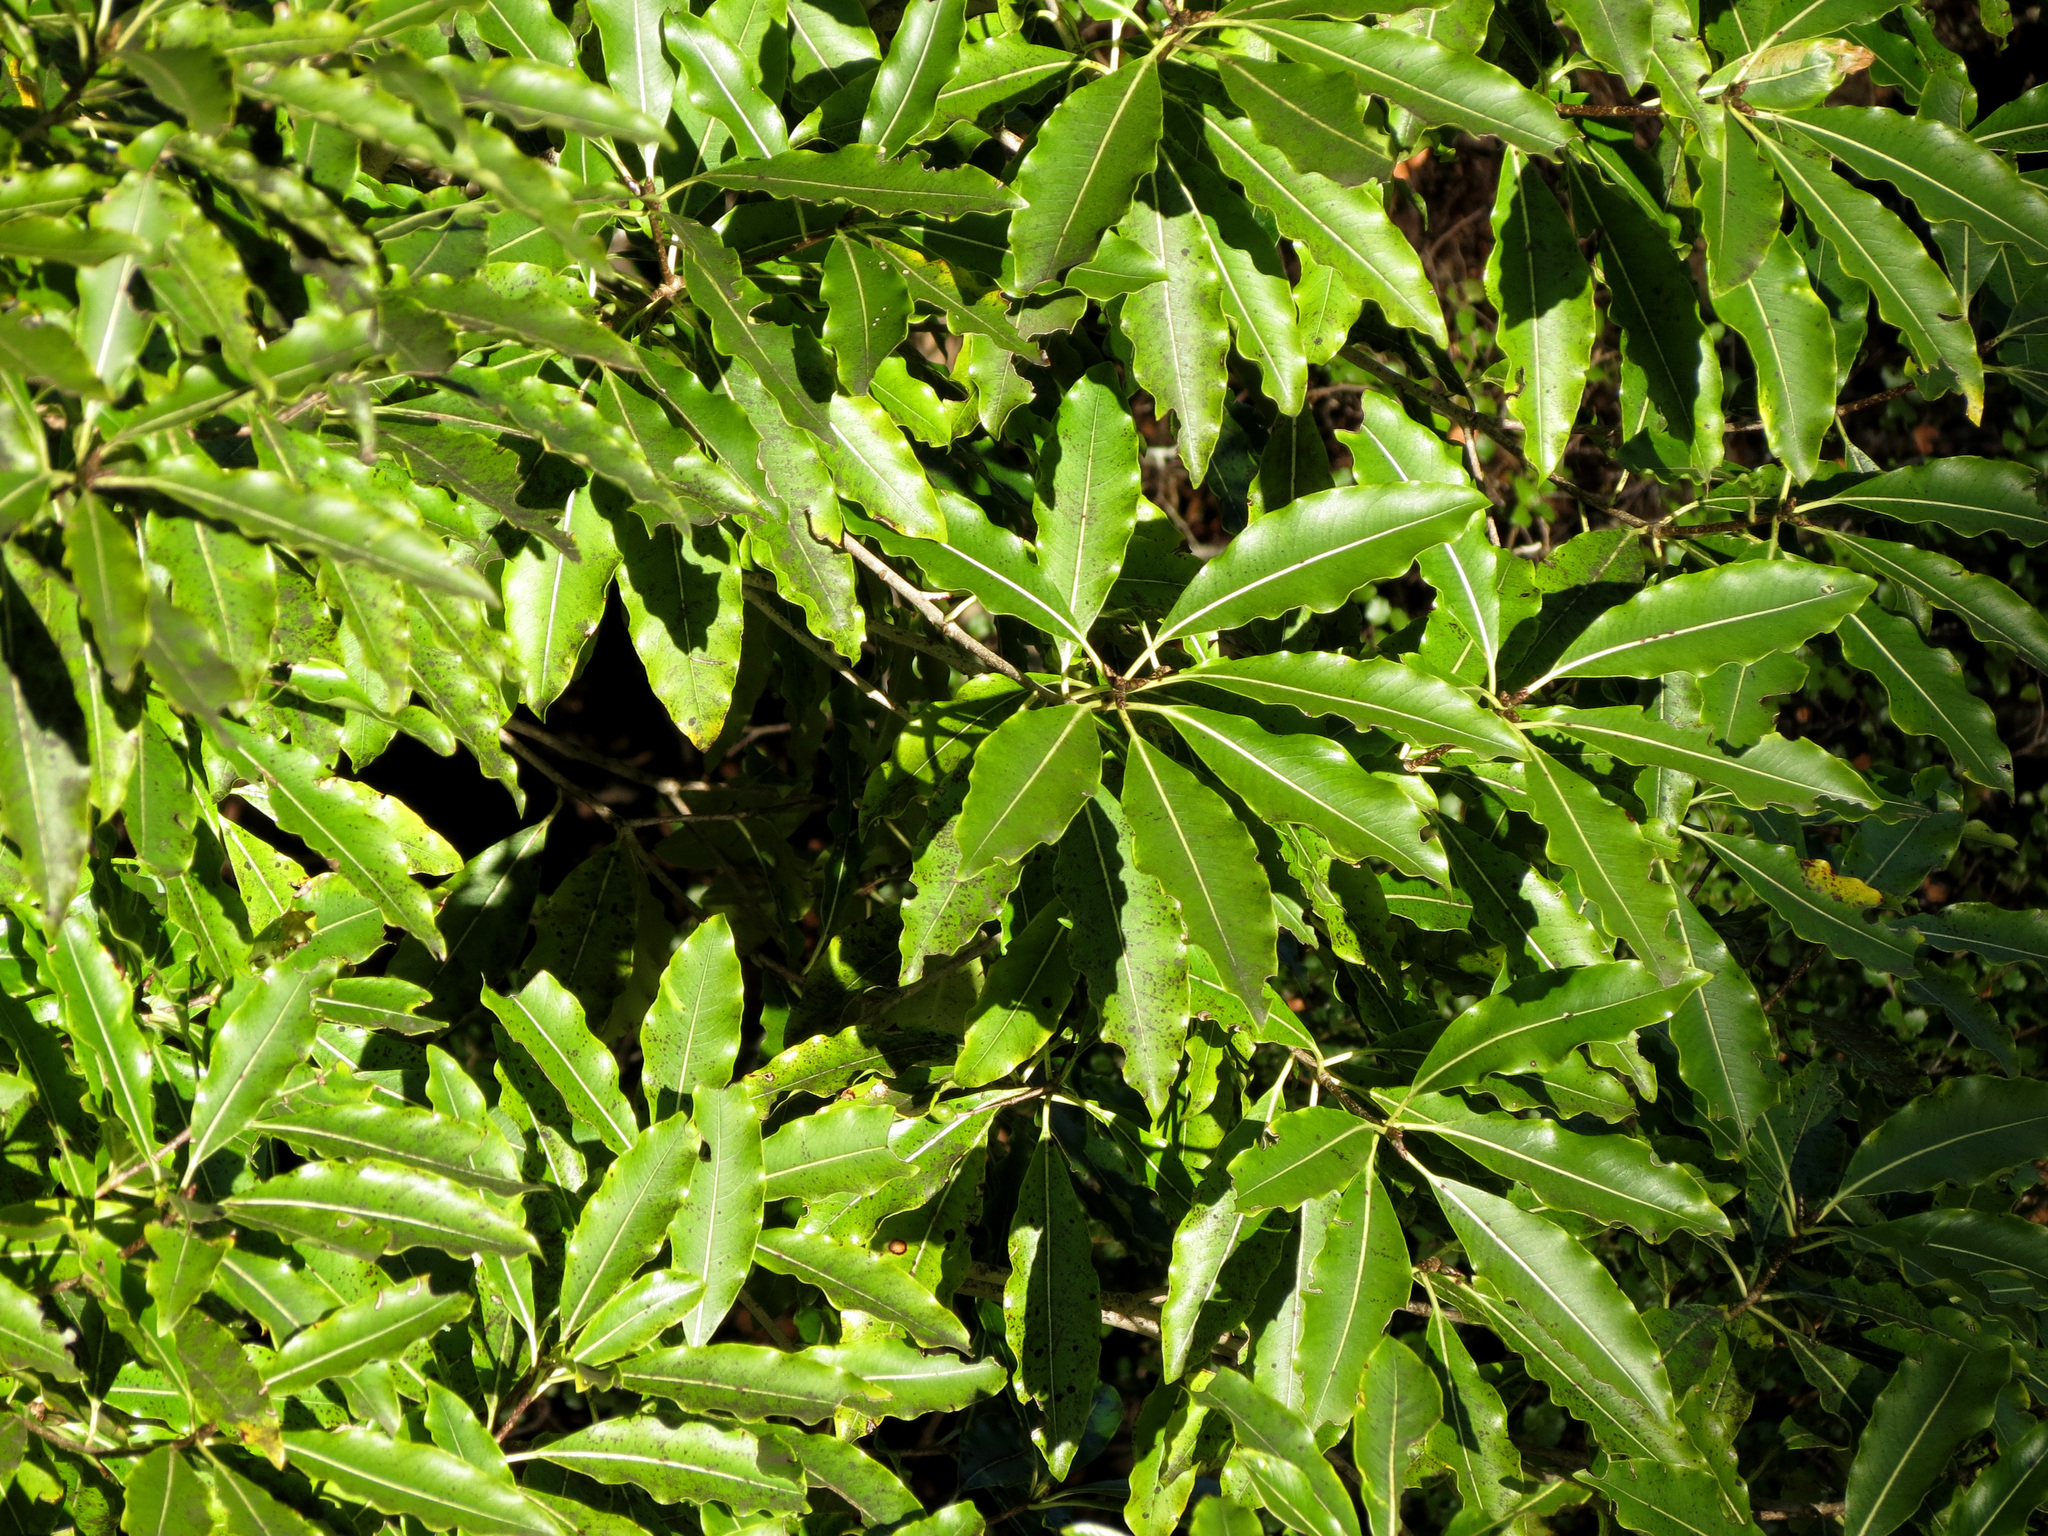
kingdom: Plantae
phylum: Tracheophyta
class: Magnoliopsida
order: Apiales
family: Pittosporaceae
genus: Pittosporum
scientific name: Pittosporum eugenioides
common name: Lemonwood
